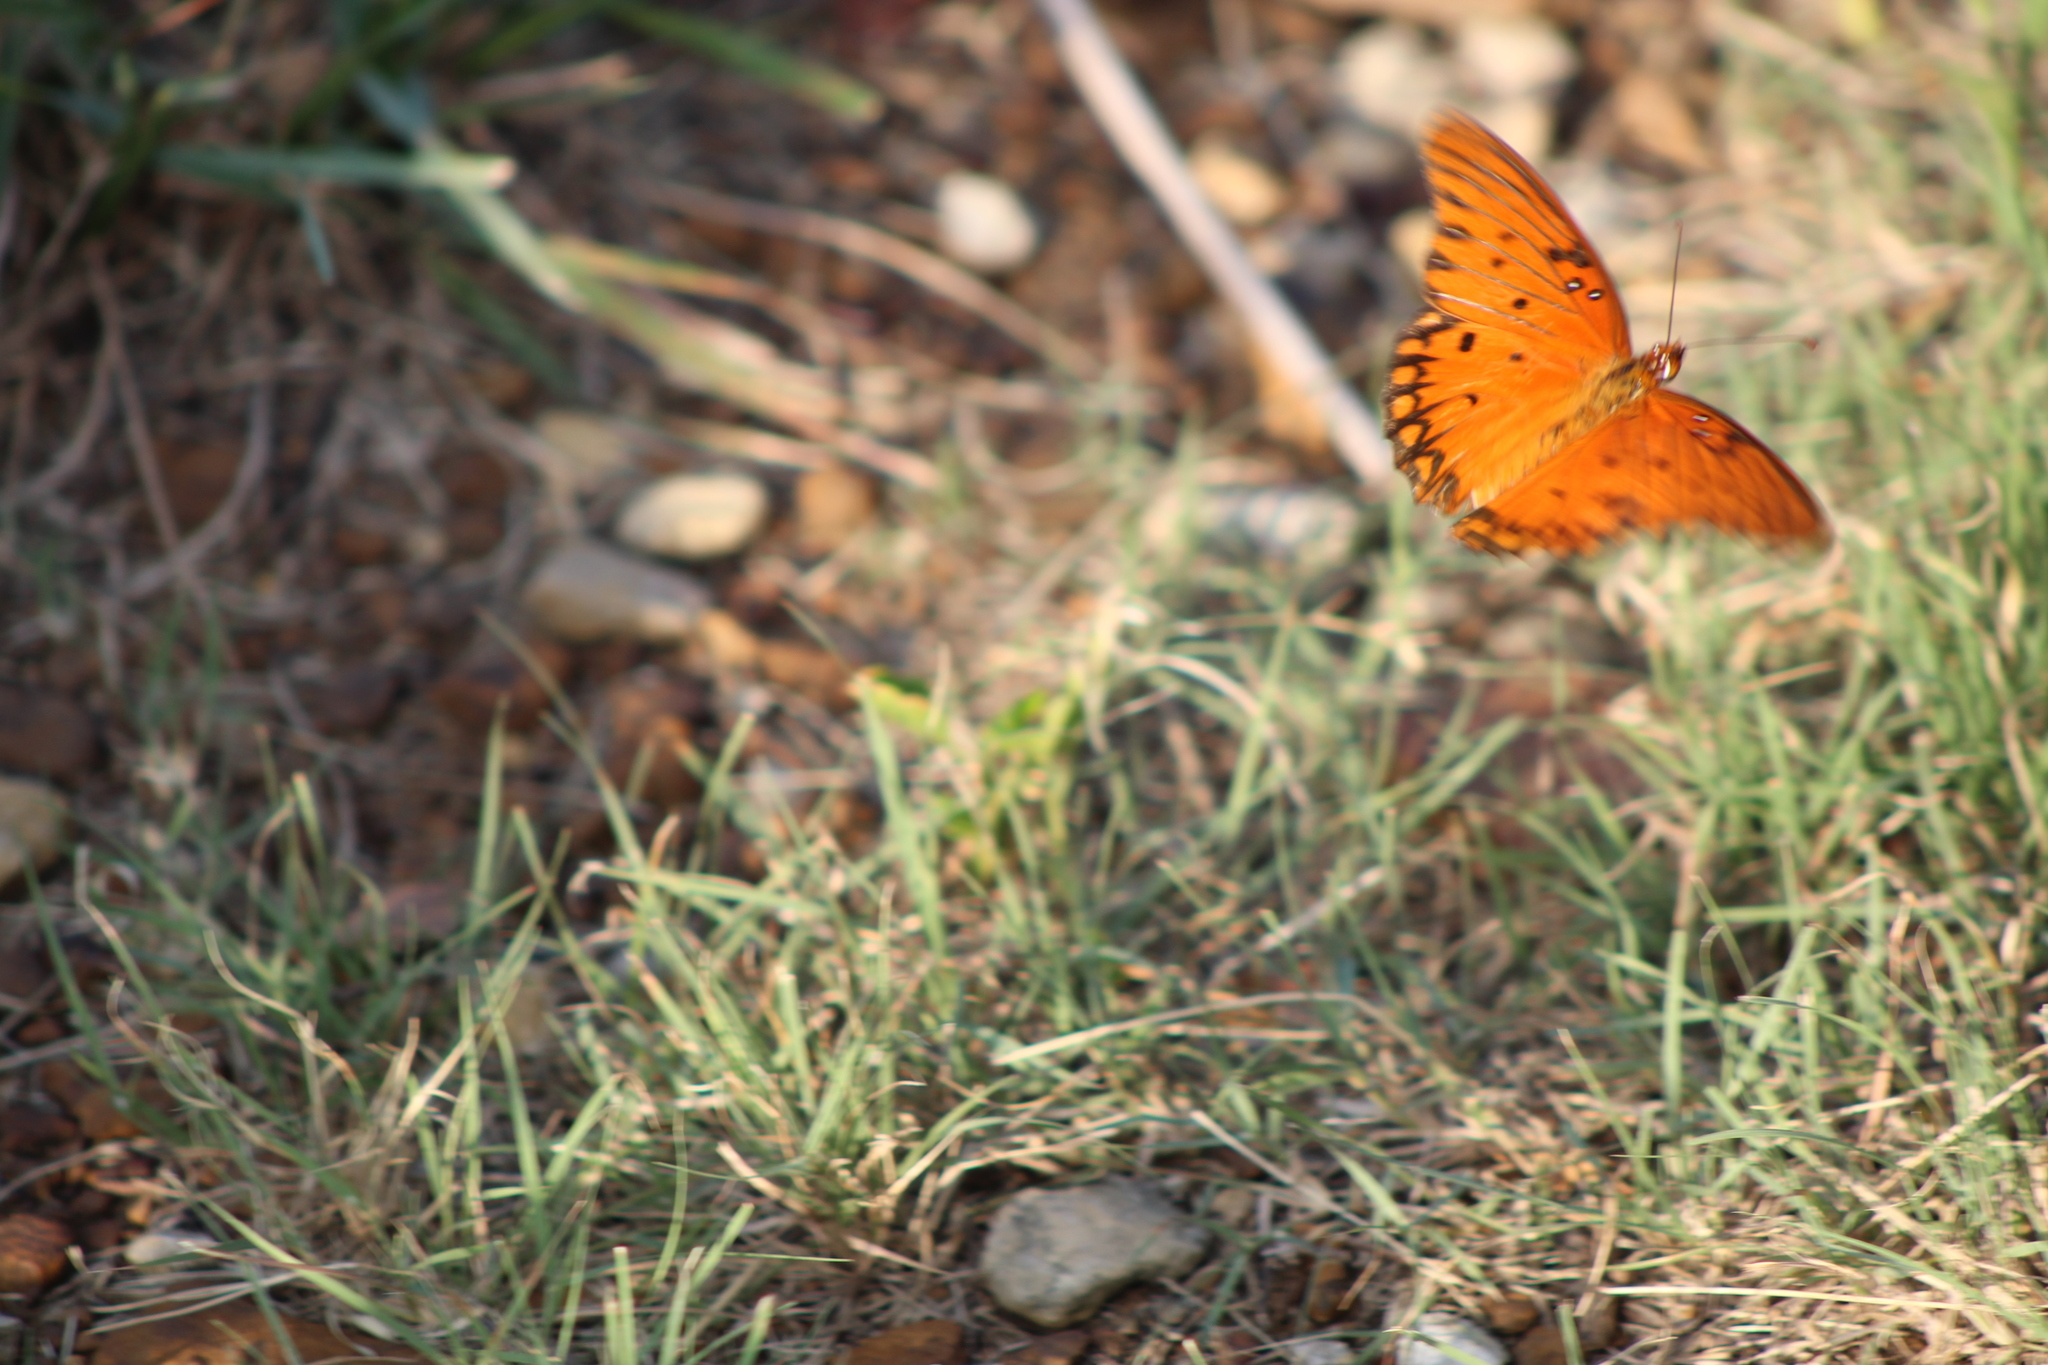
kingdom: Animalia
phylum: Arthropoda
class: Insecta
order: Lepidoptera
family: Nymphalidae
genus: Dione
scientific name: Dione vanillae
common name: Gulf fritillary
